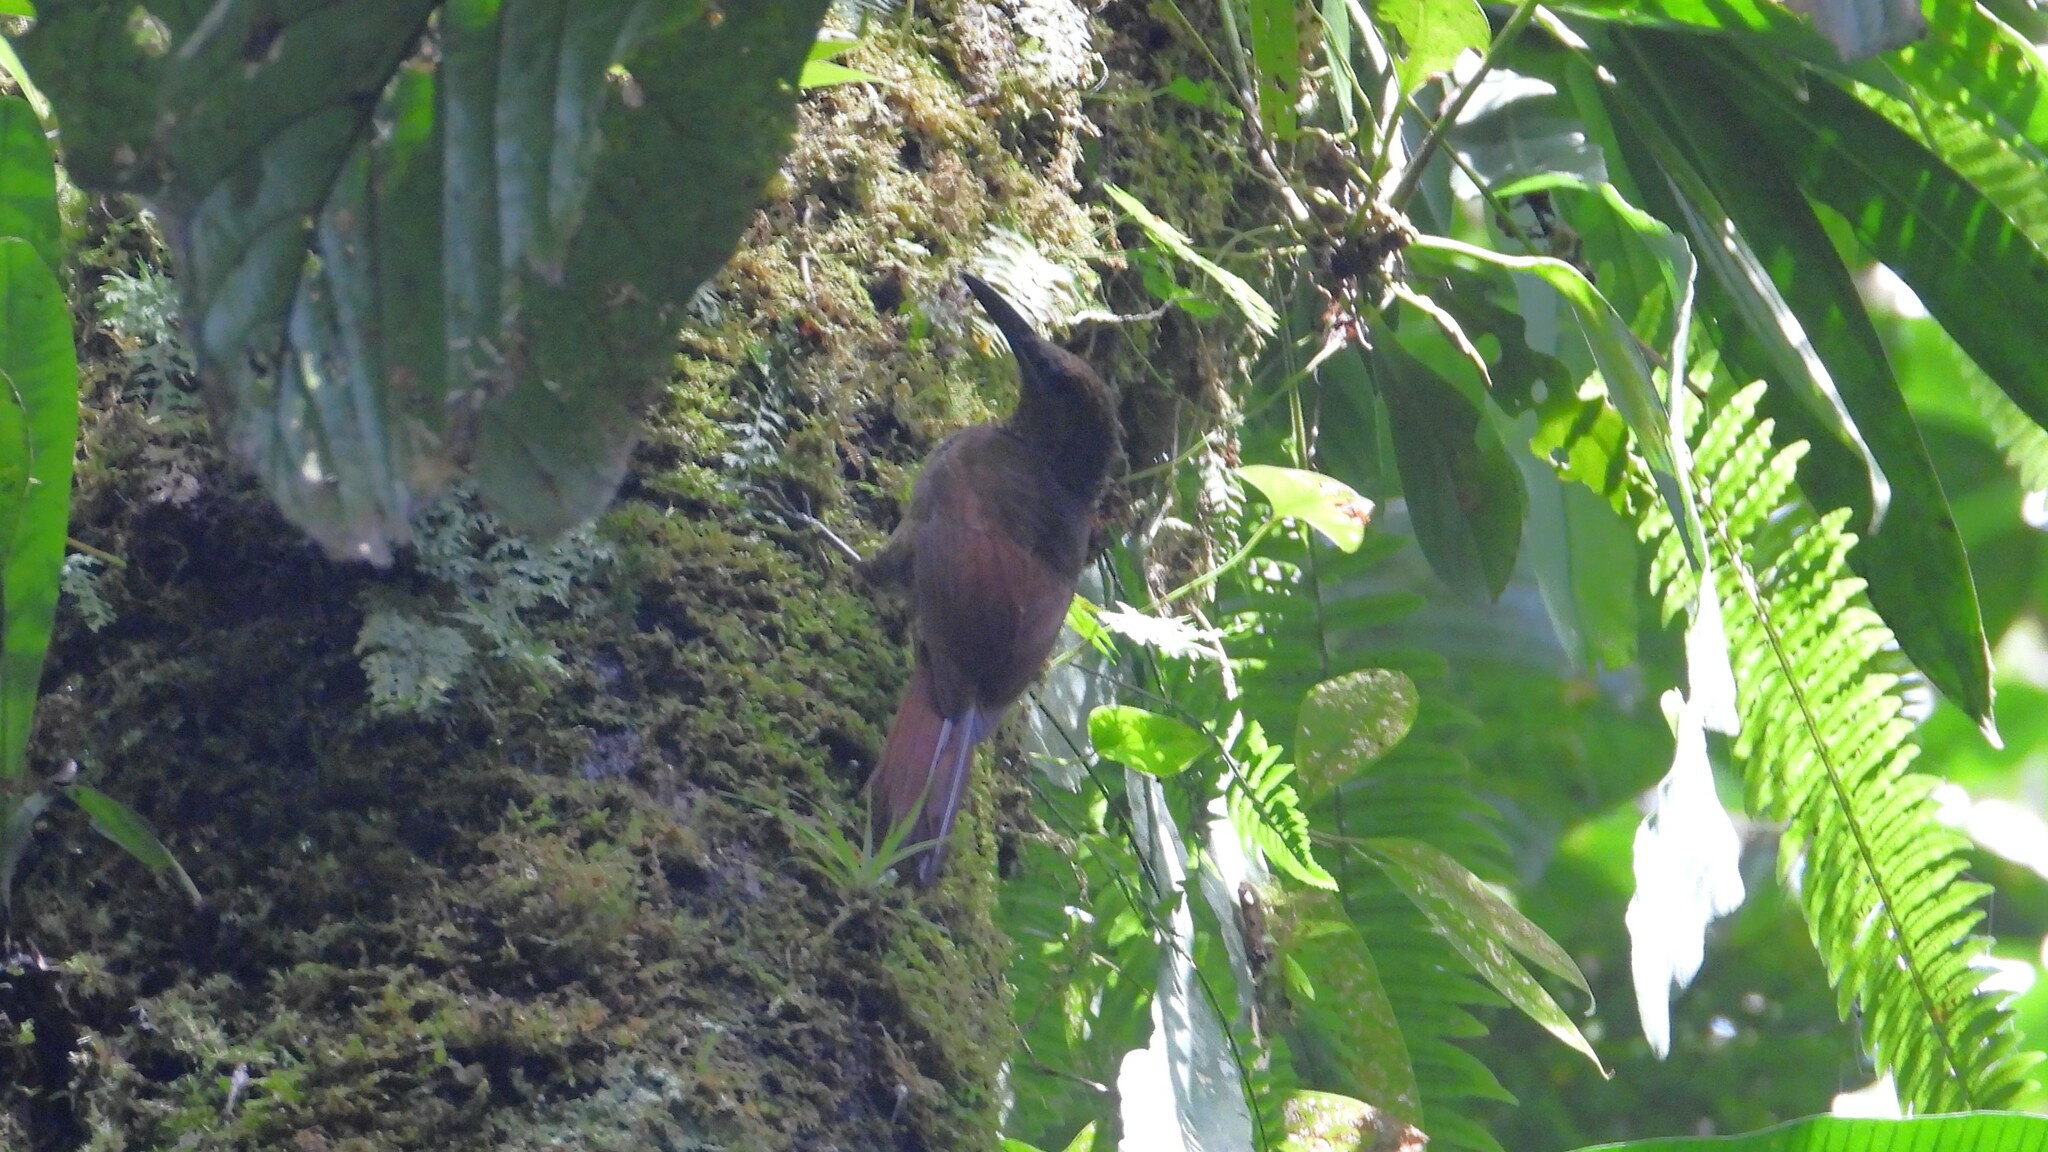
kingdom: Animalia
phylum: Chordata
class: Aves
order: Passeriformes
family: Furnariidae
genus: Dendrocolaptes
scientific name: Dendrocolaptes sanctithomae
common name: Northern barred-woodcreeper
